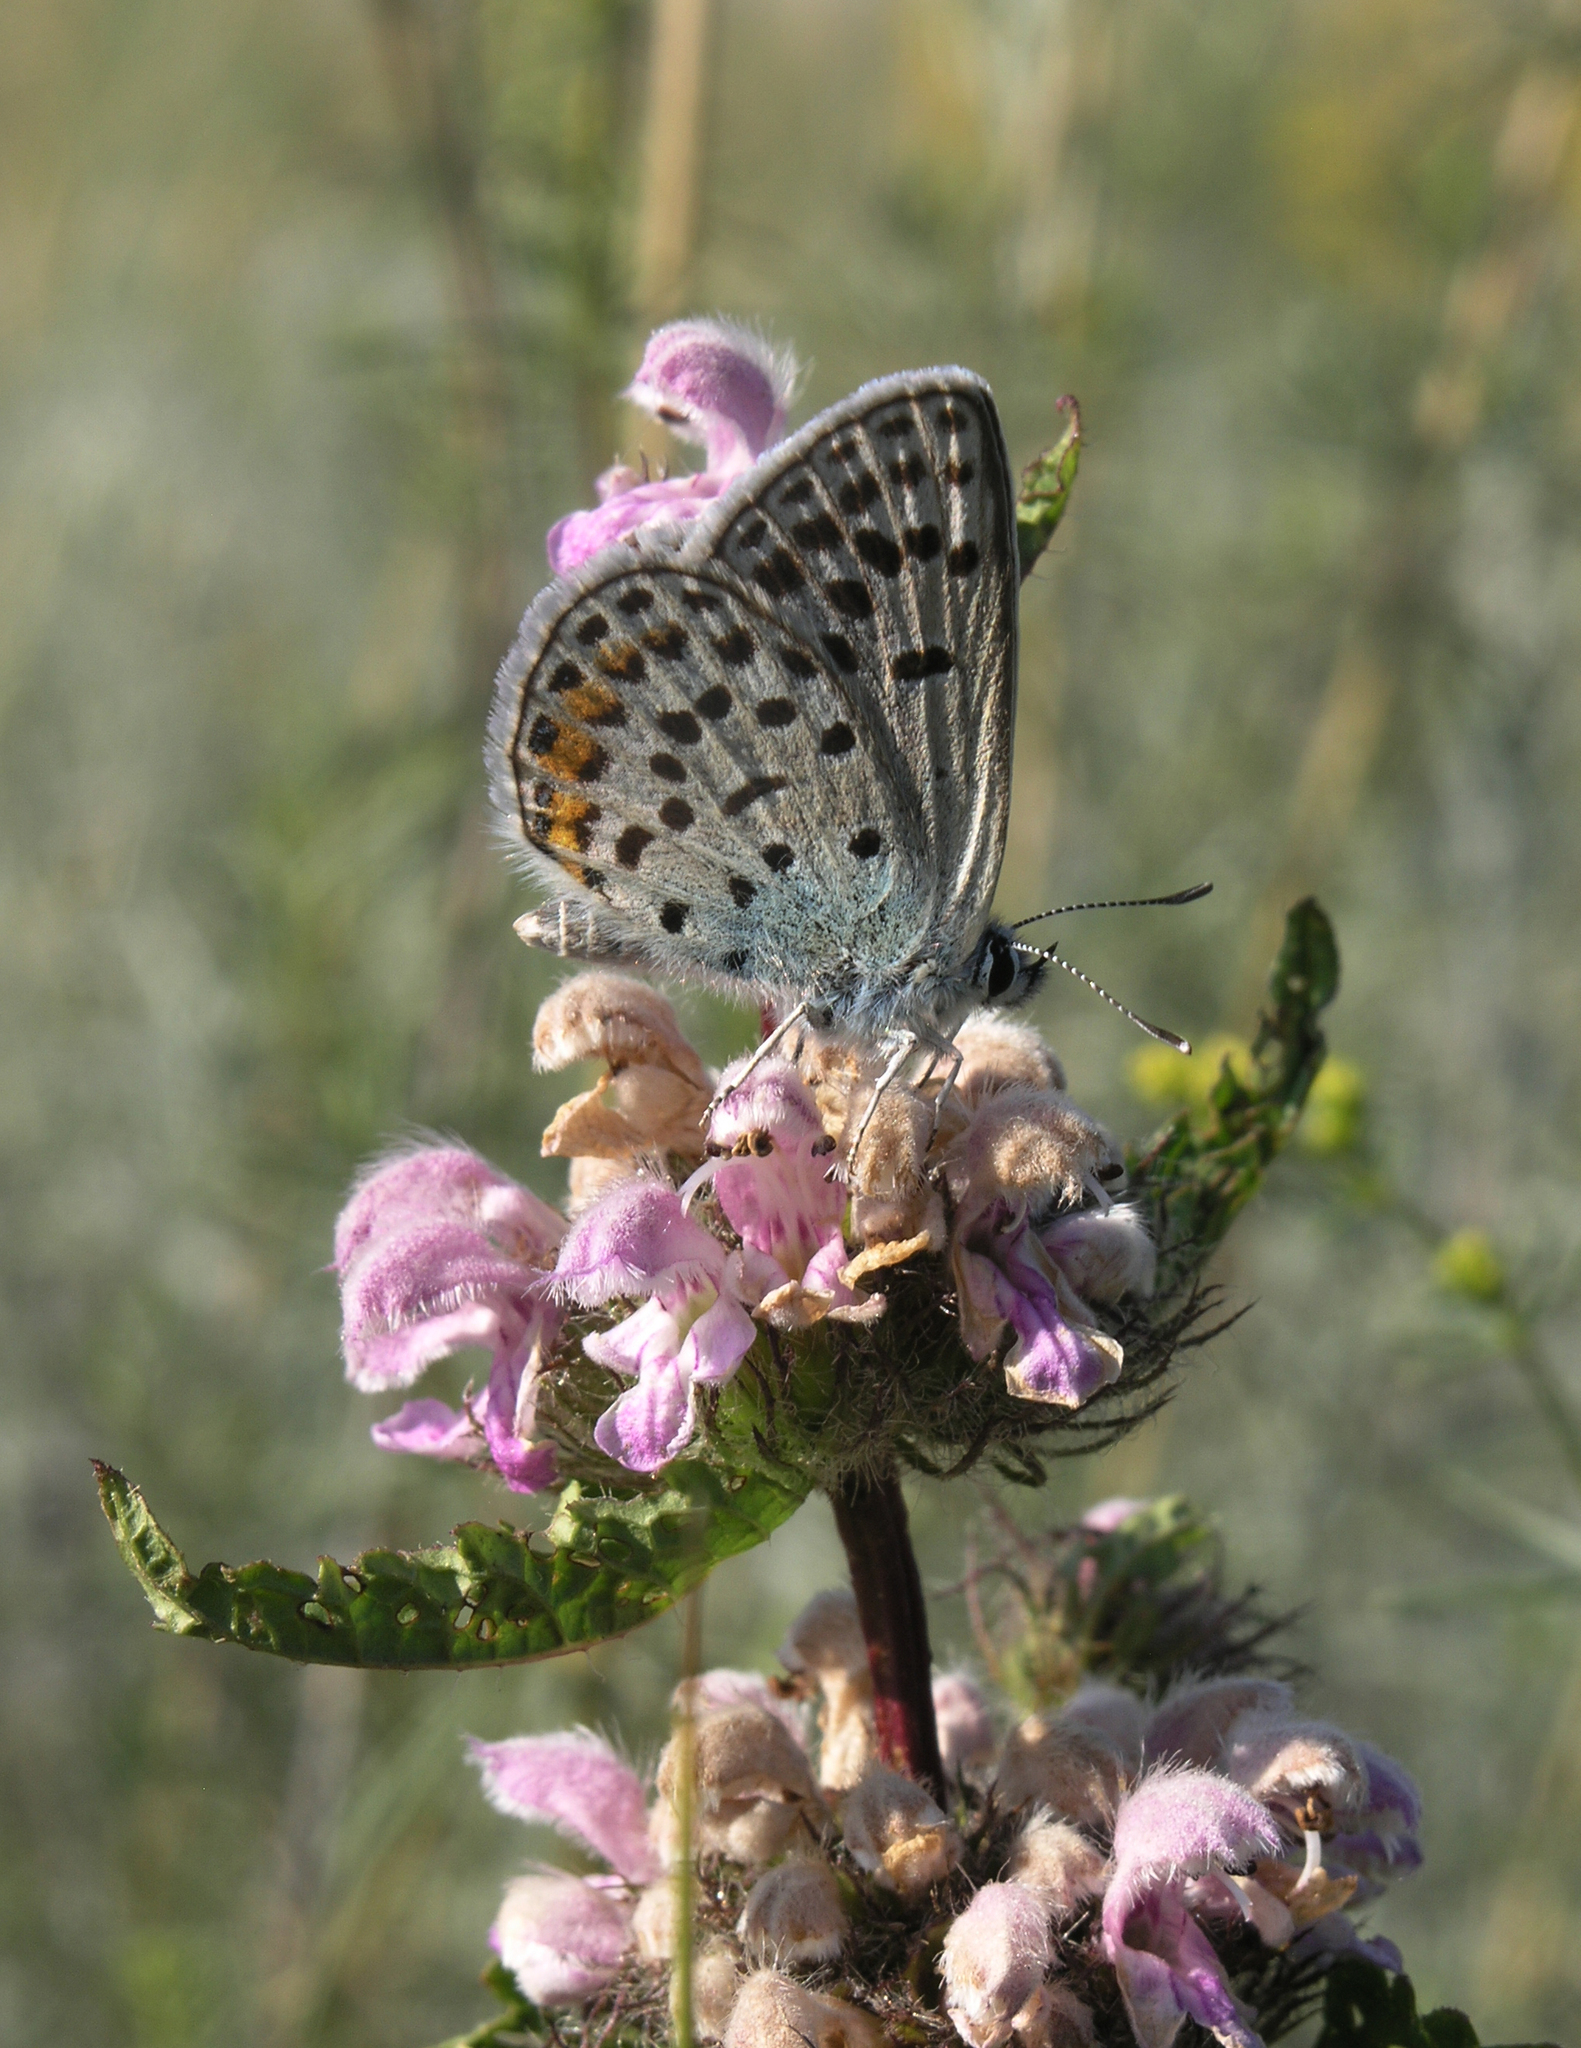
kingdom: Animalia
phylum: Arthropoda
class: Insecta
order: Lepidoptera
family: Lycaenidae
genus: Glabroculus
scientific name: Glabroculus cyane
